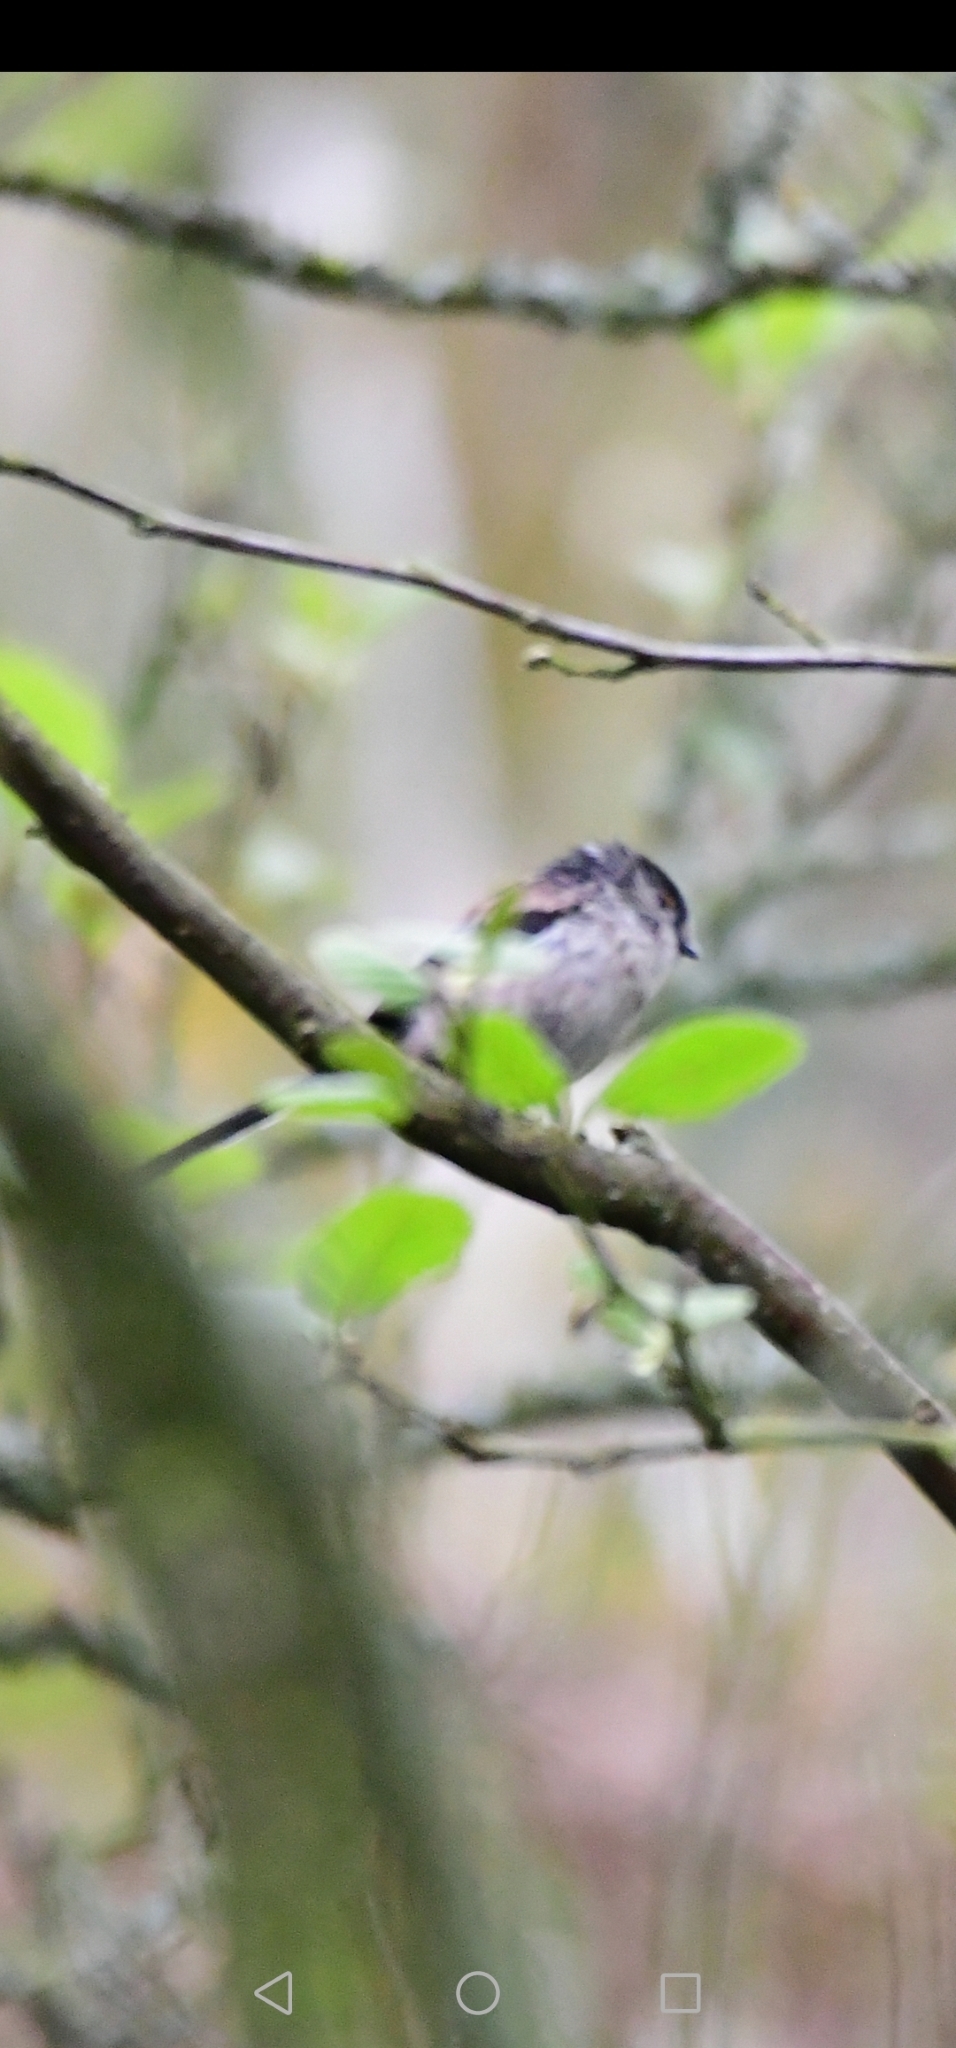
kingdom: Animalia
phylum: Chordata
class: Aves
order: Passeriformes
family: Aegithalidae
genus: Aegithalos
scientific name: Aegithalos caudatus
